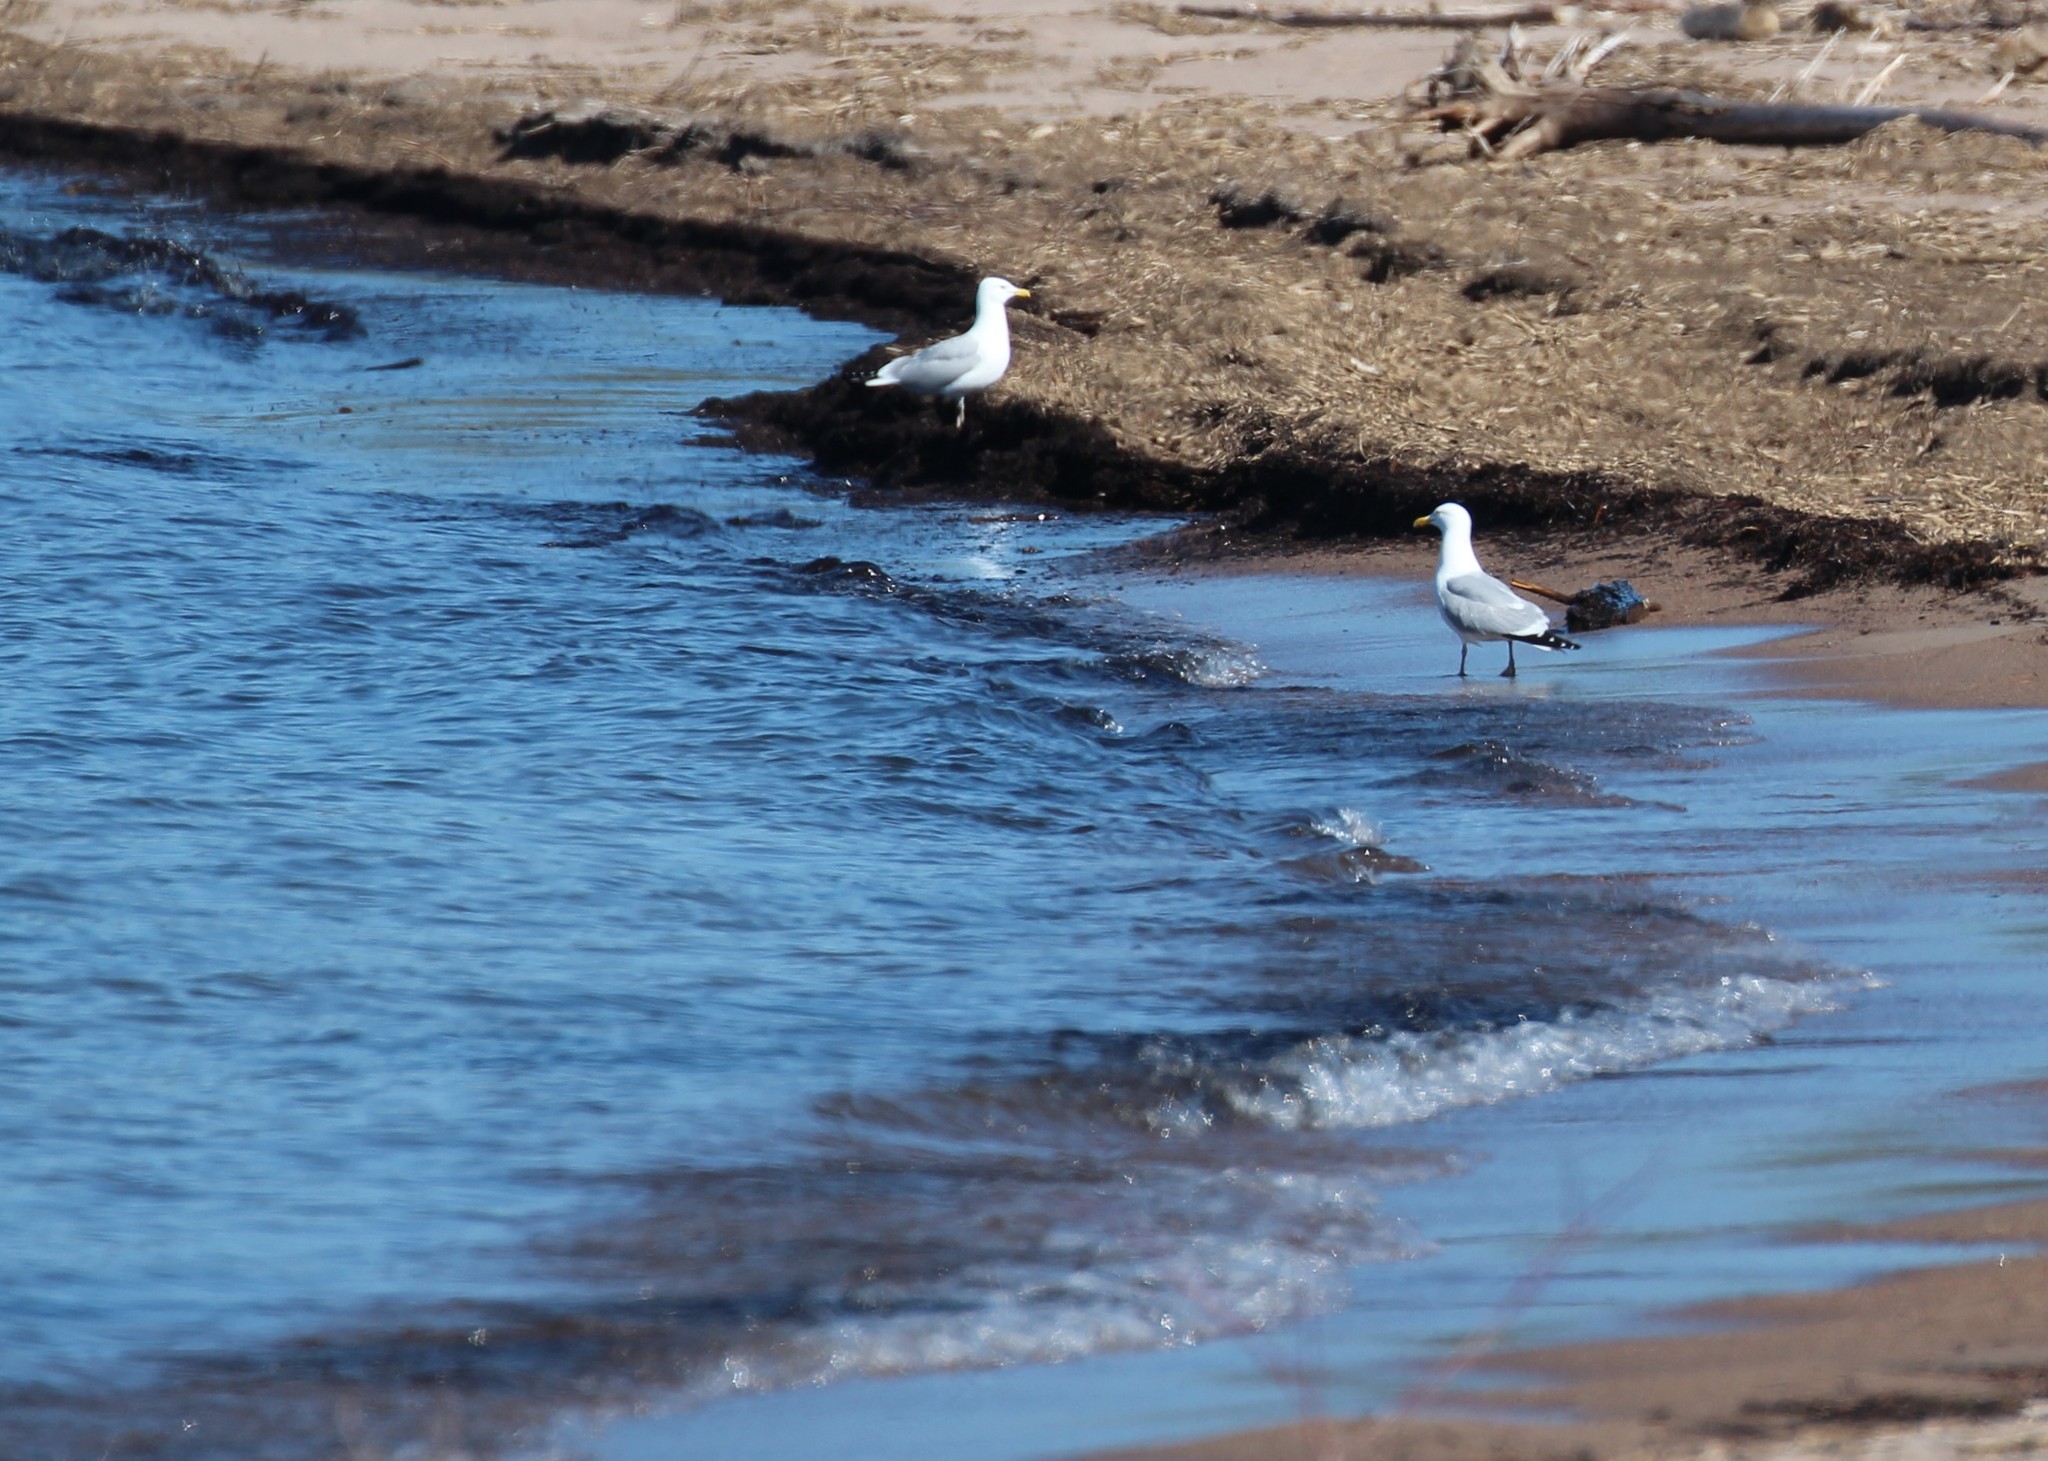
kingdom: Animalia
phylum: Chordata
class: Aves
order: Charadriiformes
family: Laridae
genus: Larus
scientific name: Larus argentatus
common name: Herring gull
